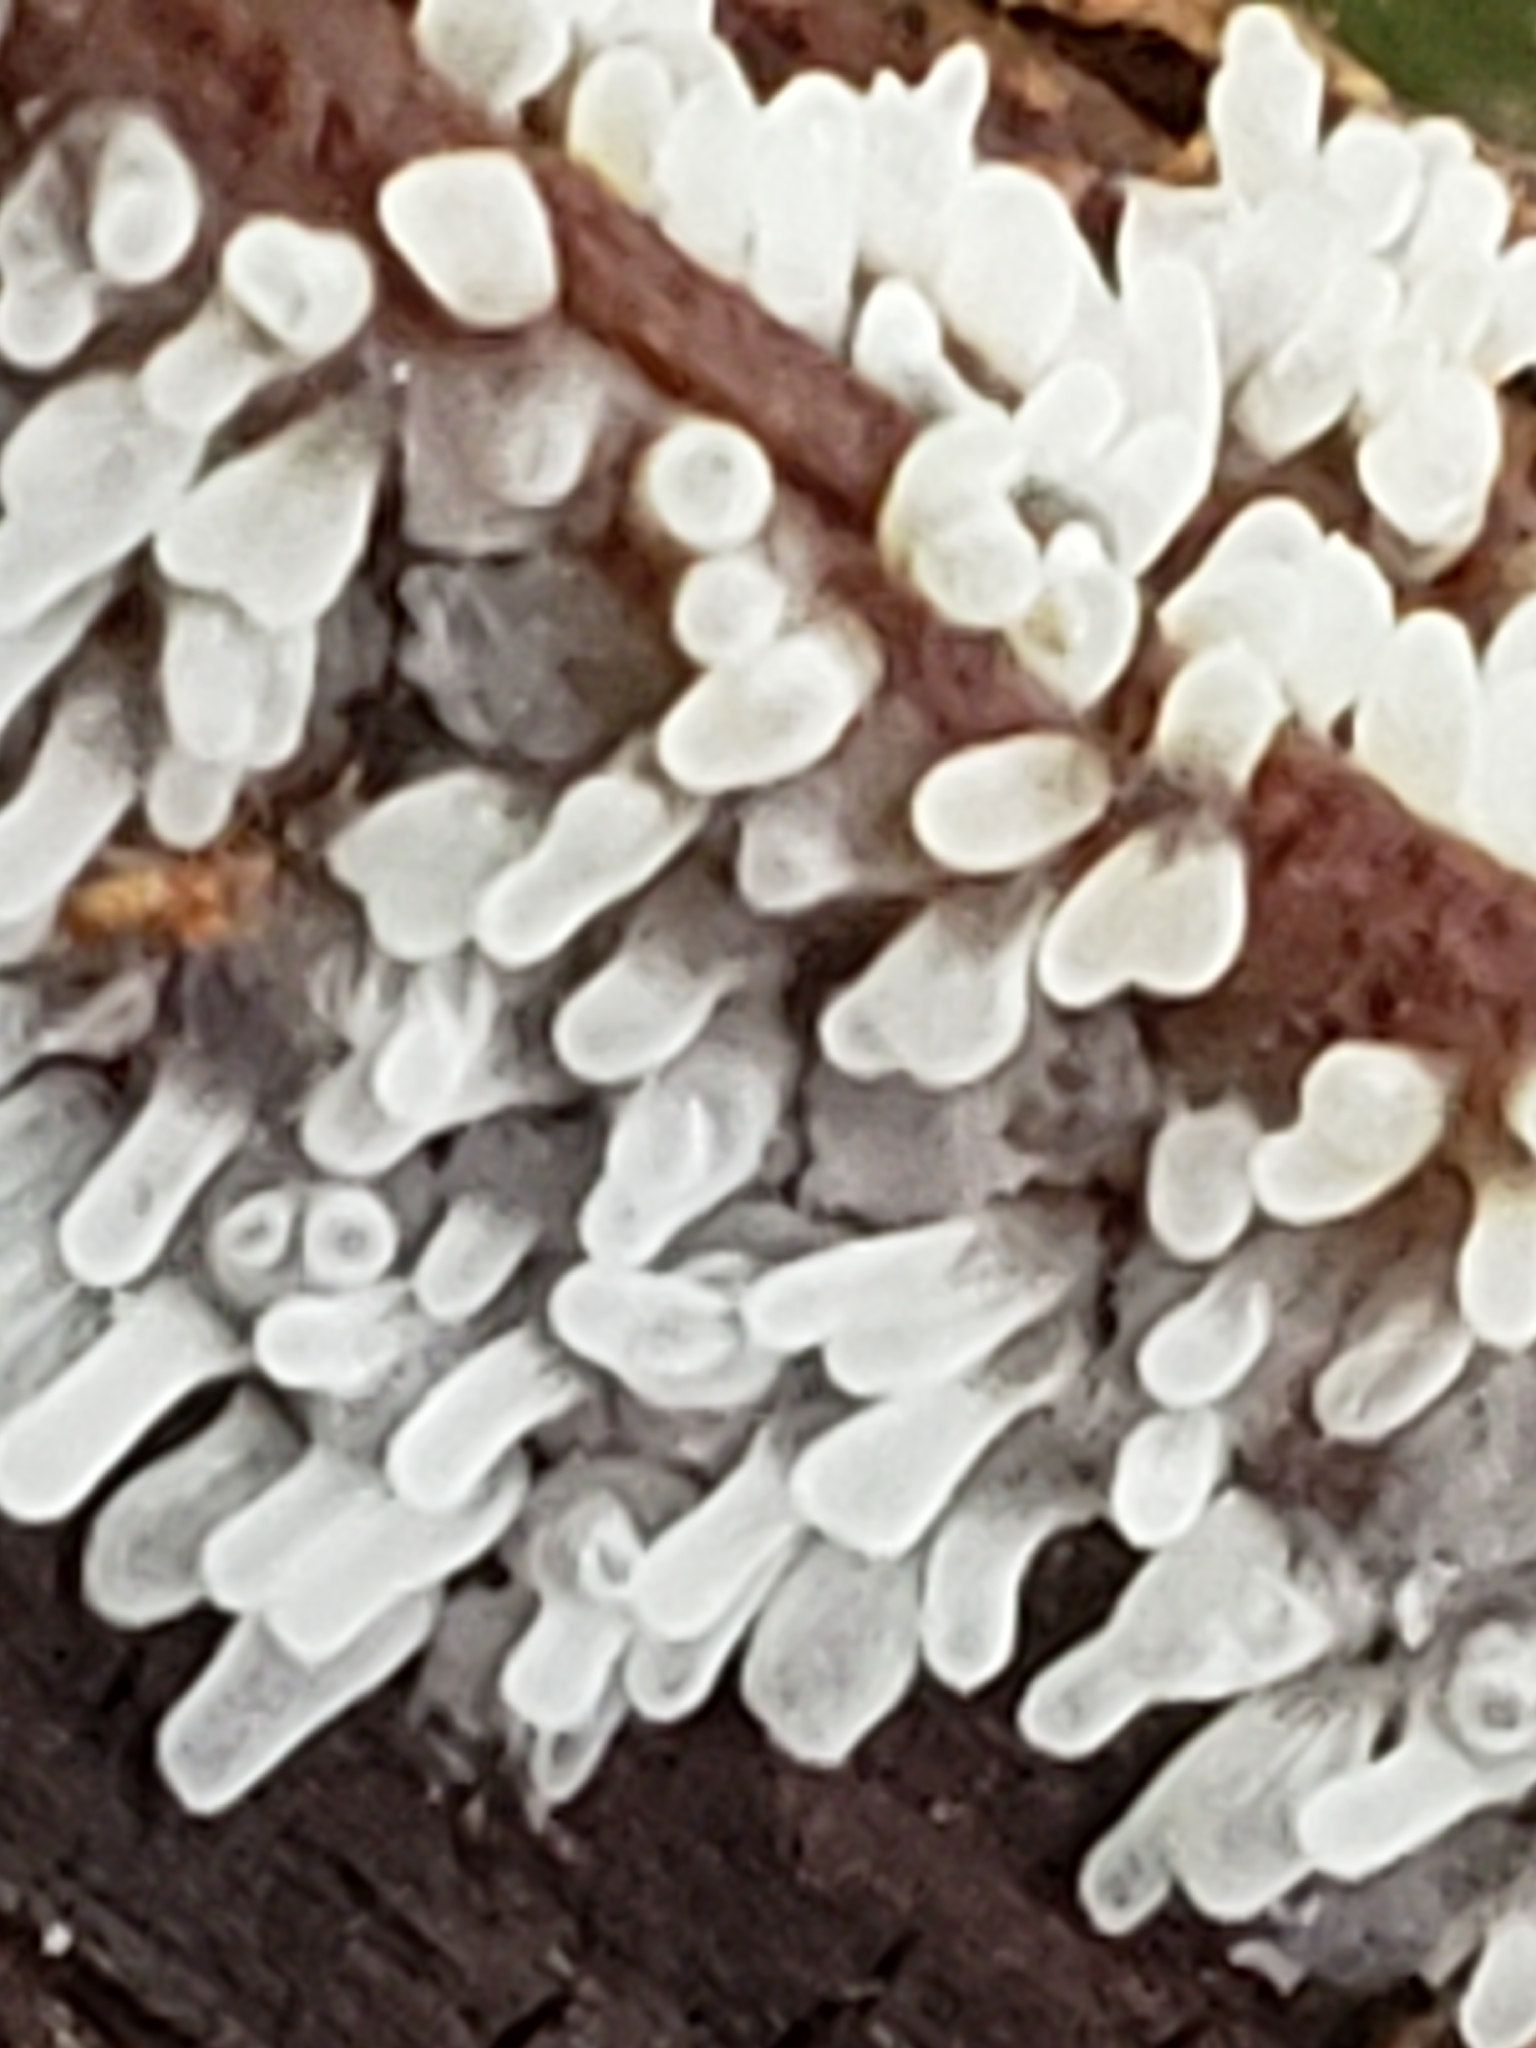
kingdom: Protozoa
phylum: Mycetozoa
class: Protosteliomycetes
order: Ceratiomyxales
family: Ceratiomyxaceae
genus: Ceratiomyxa
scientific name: Ceratiomyxa fruticulosa
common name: Honeycomb coral slime mold
